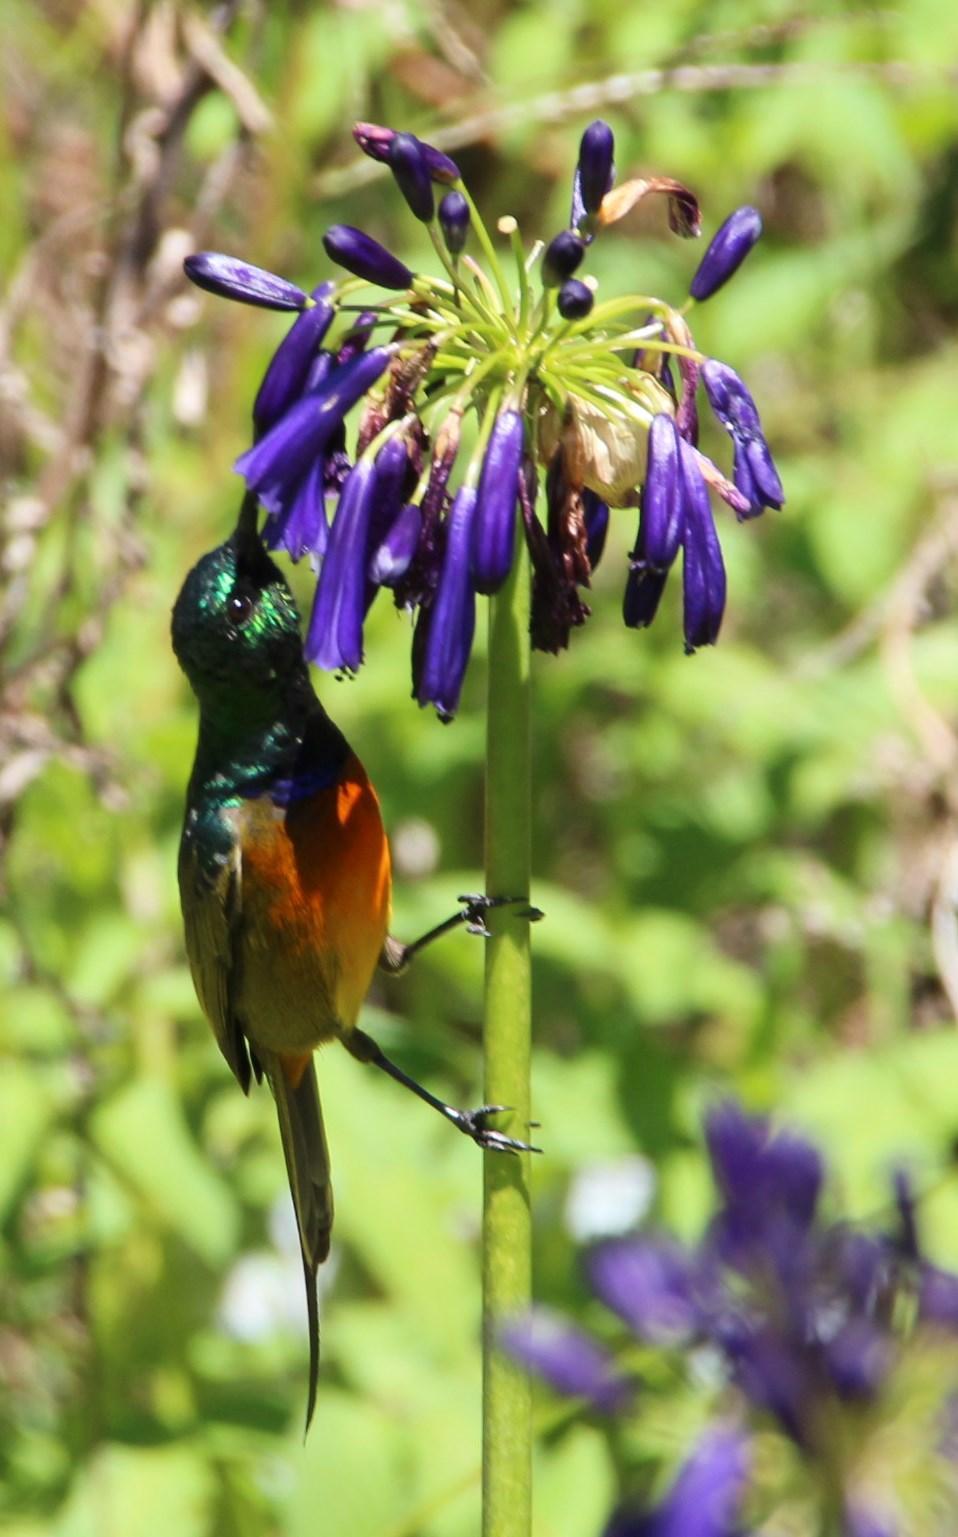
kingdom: Animalia
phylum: Chordata
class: Aves
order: Passeriformes
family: Nectariniidae
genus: Anthobaphes
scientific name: Anthobaphes violacea
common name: Orange-breasted sunbird
